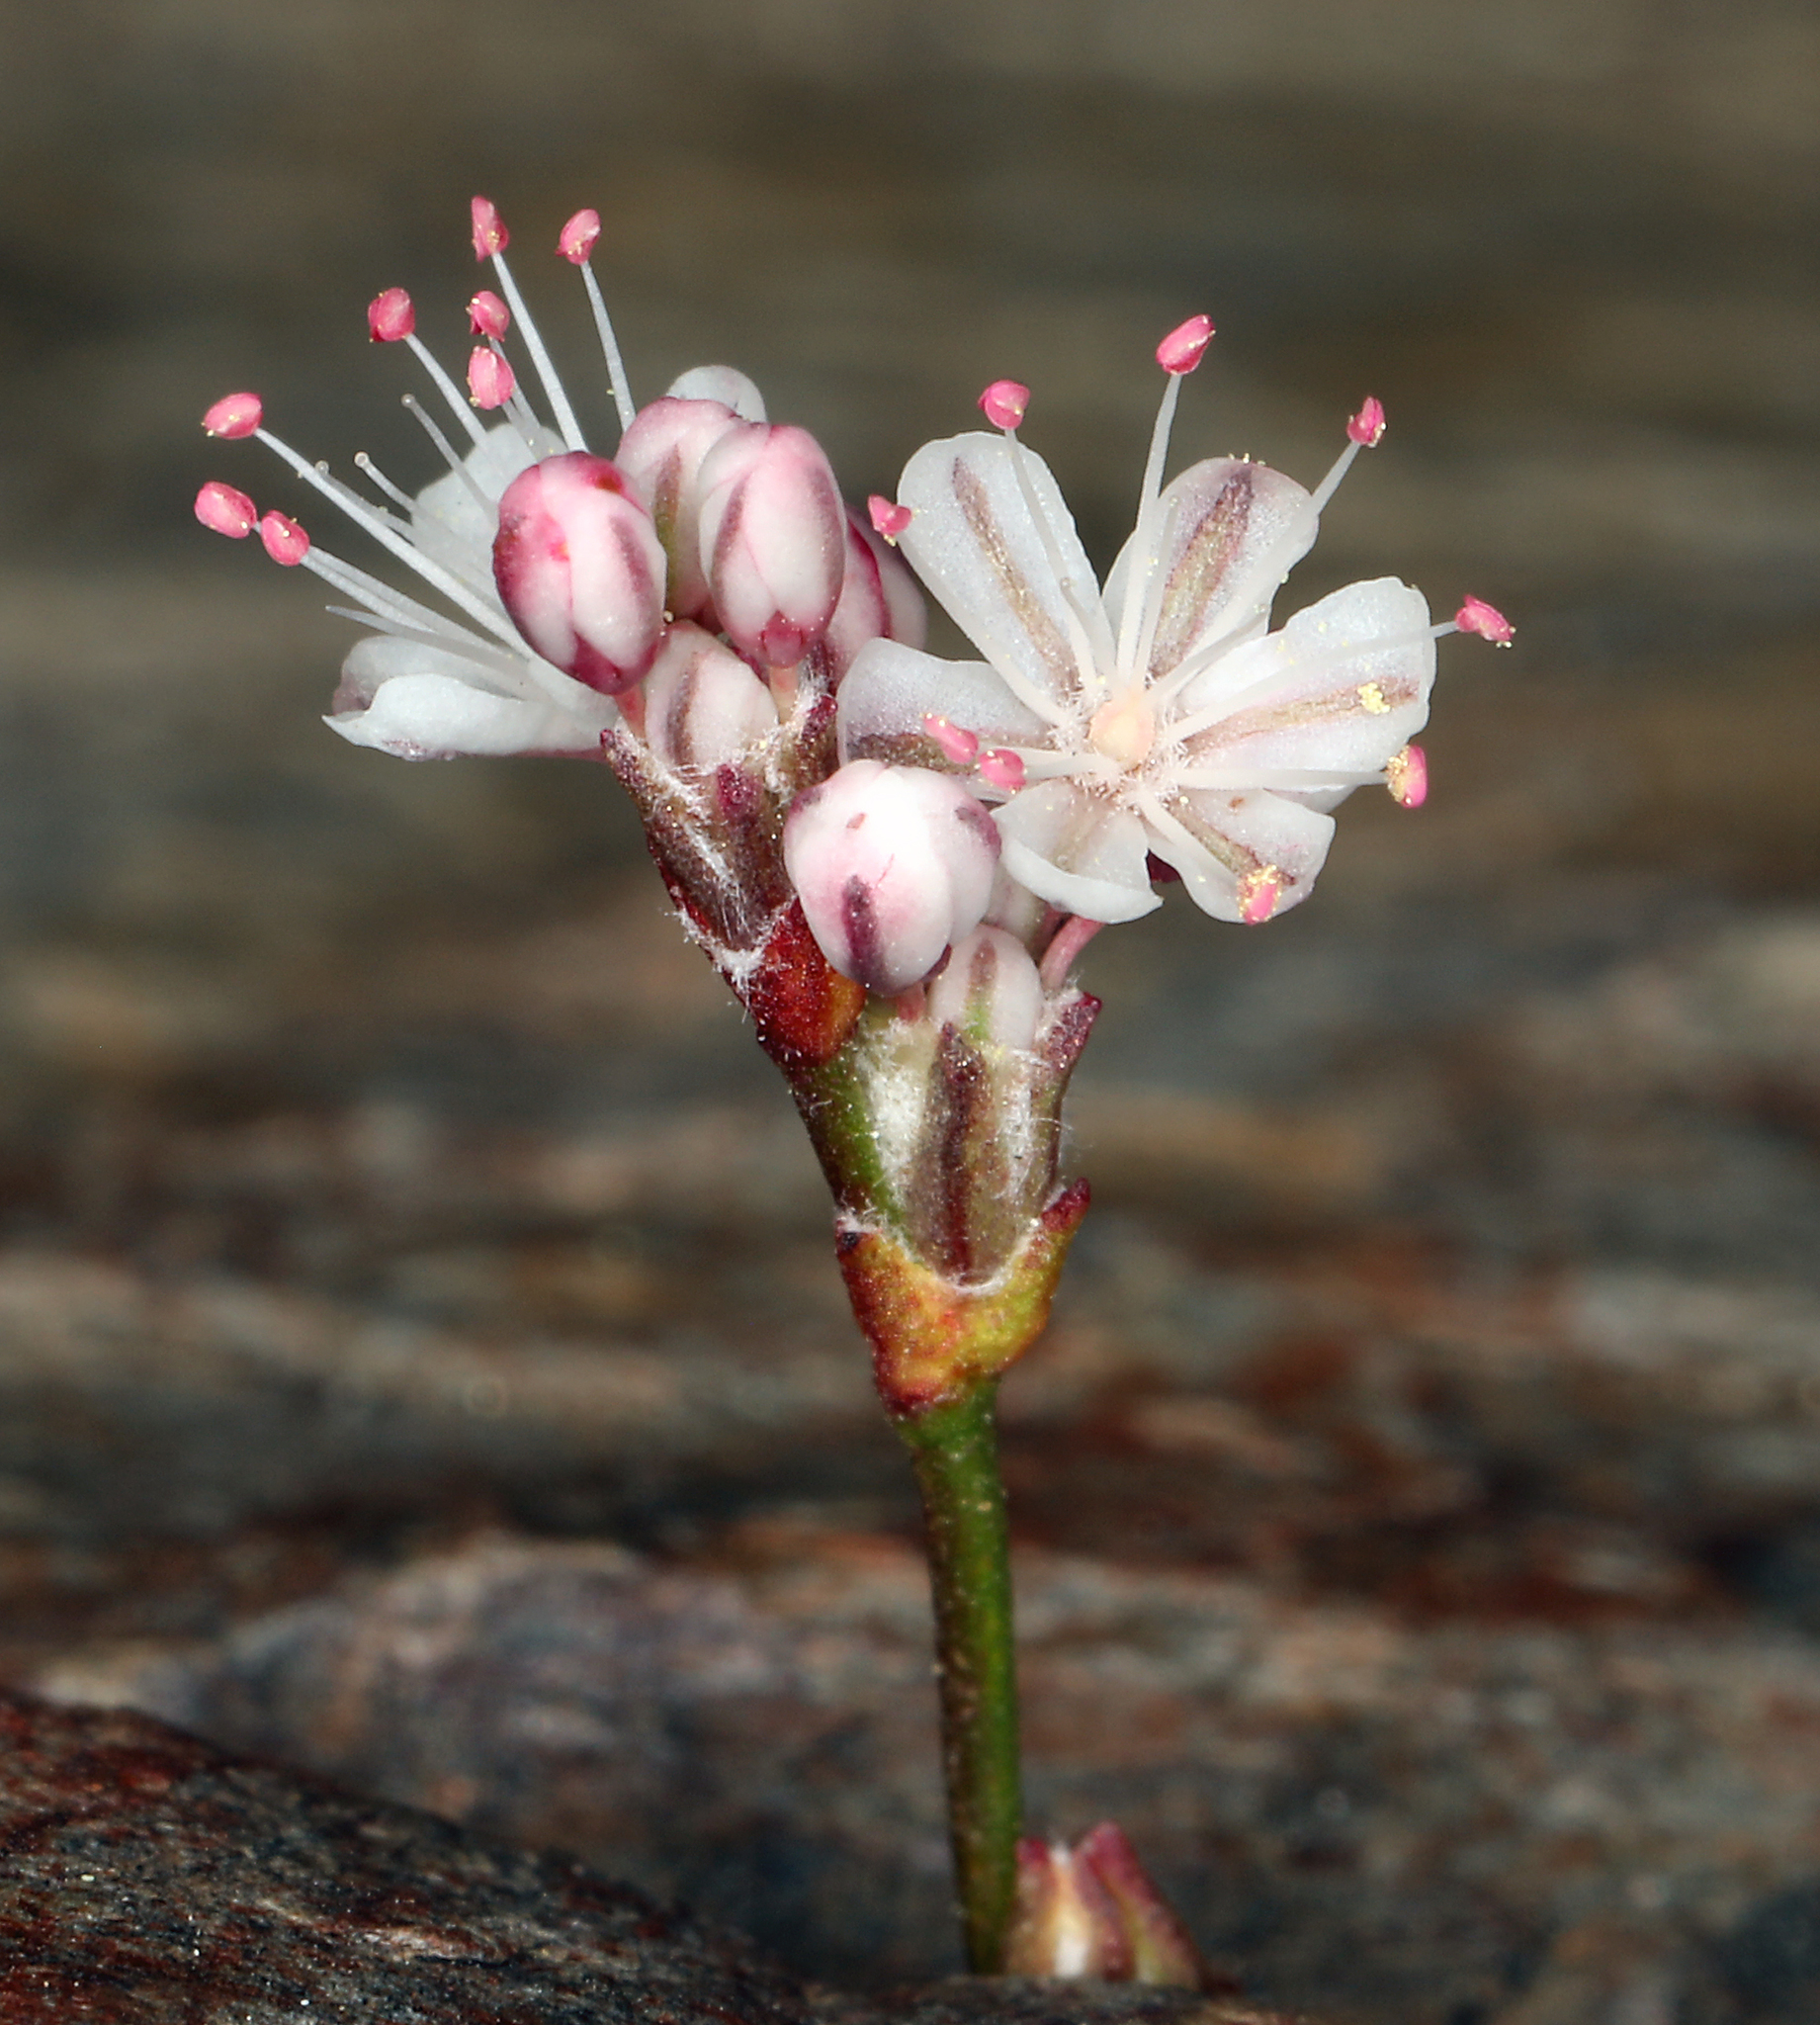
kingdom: Plantae
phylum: Tracheophyta
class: Magnoliopsida
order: Caryophyllales
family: Polygonaceae
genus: Eriogonum
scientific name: Eriogonum wrightii
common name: Bastard-sage
